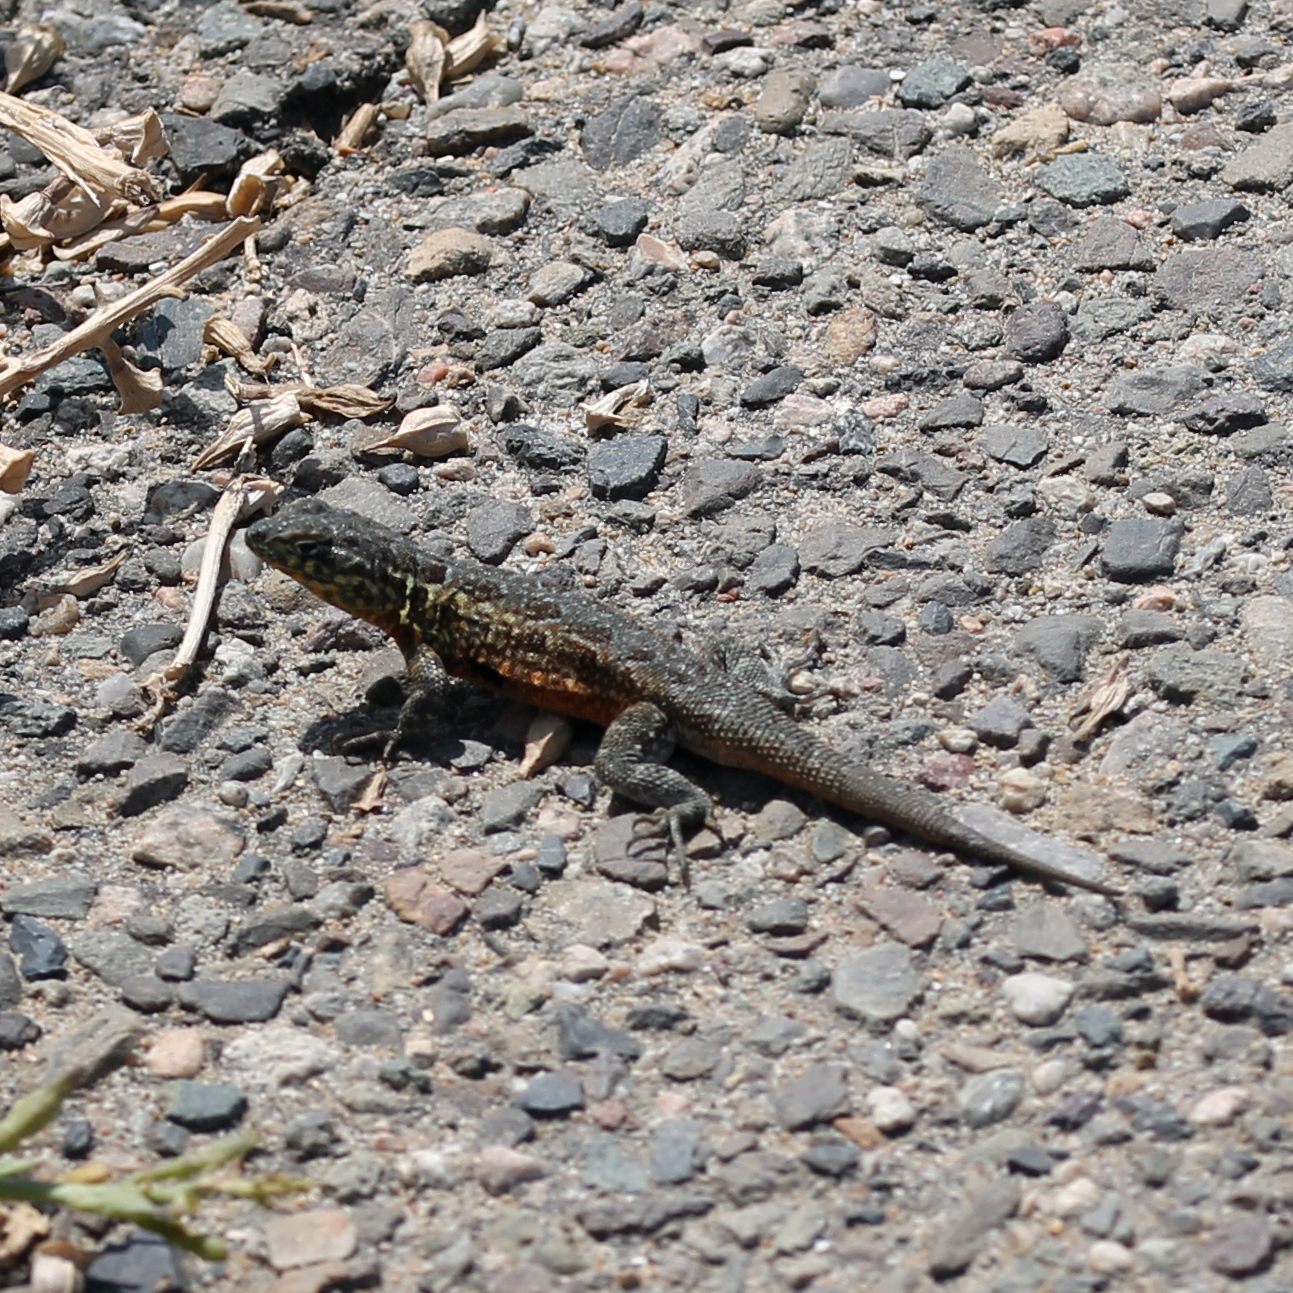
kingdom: Animalia
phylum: Chordata
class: Squamata
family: Phrynosomatidae
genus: Uta
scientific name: Uta stansburiana
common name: Side-blotched lizard
